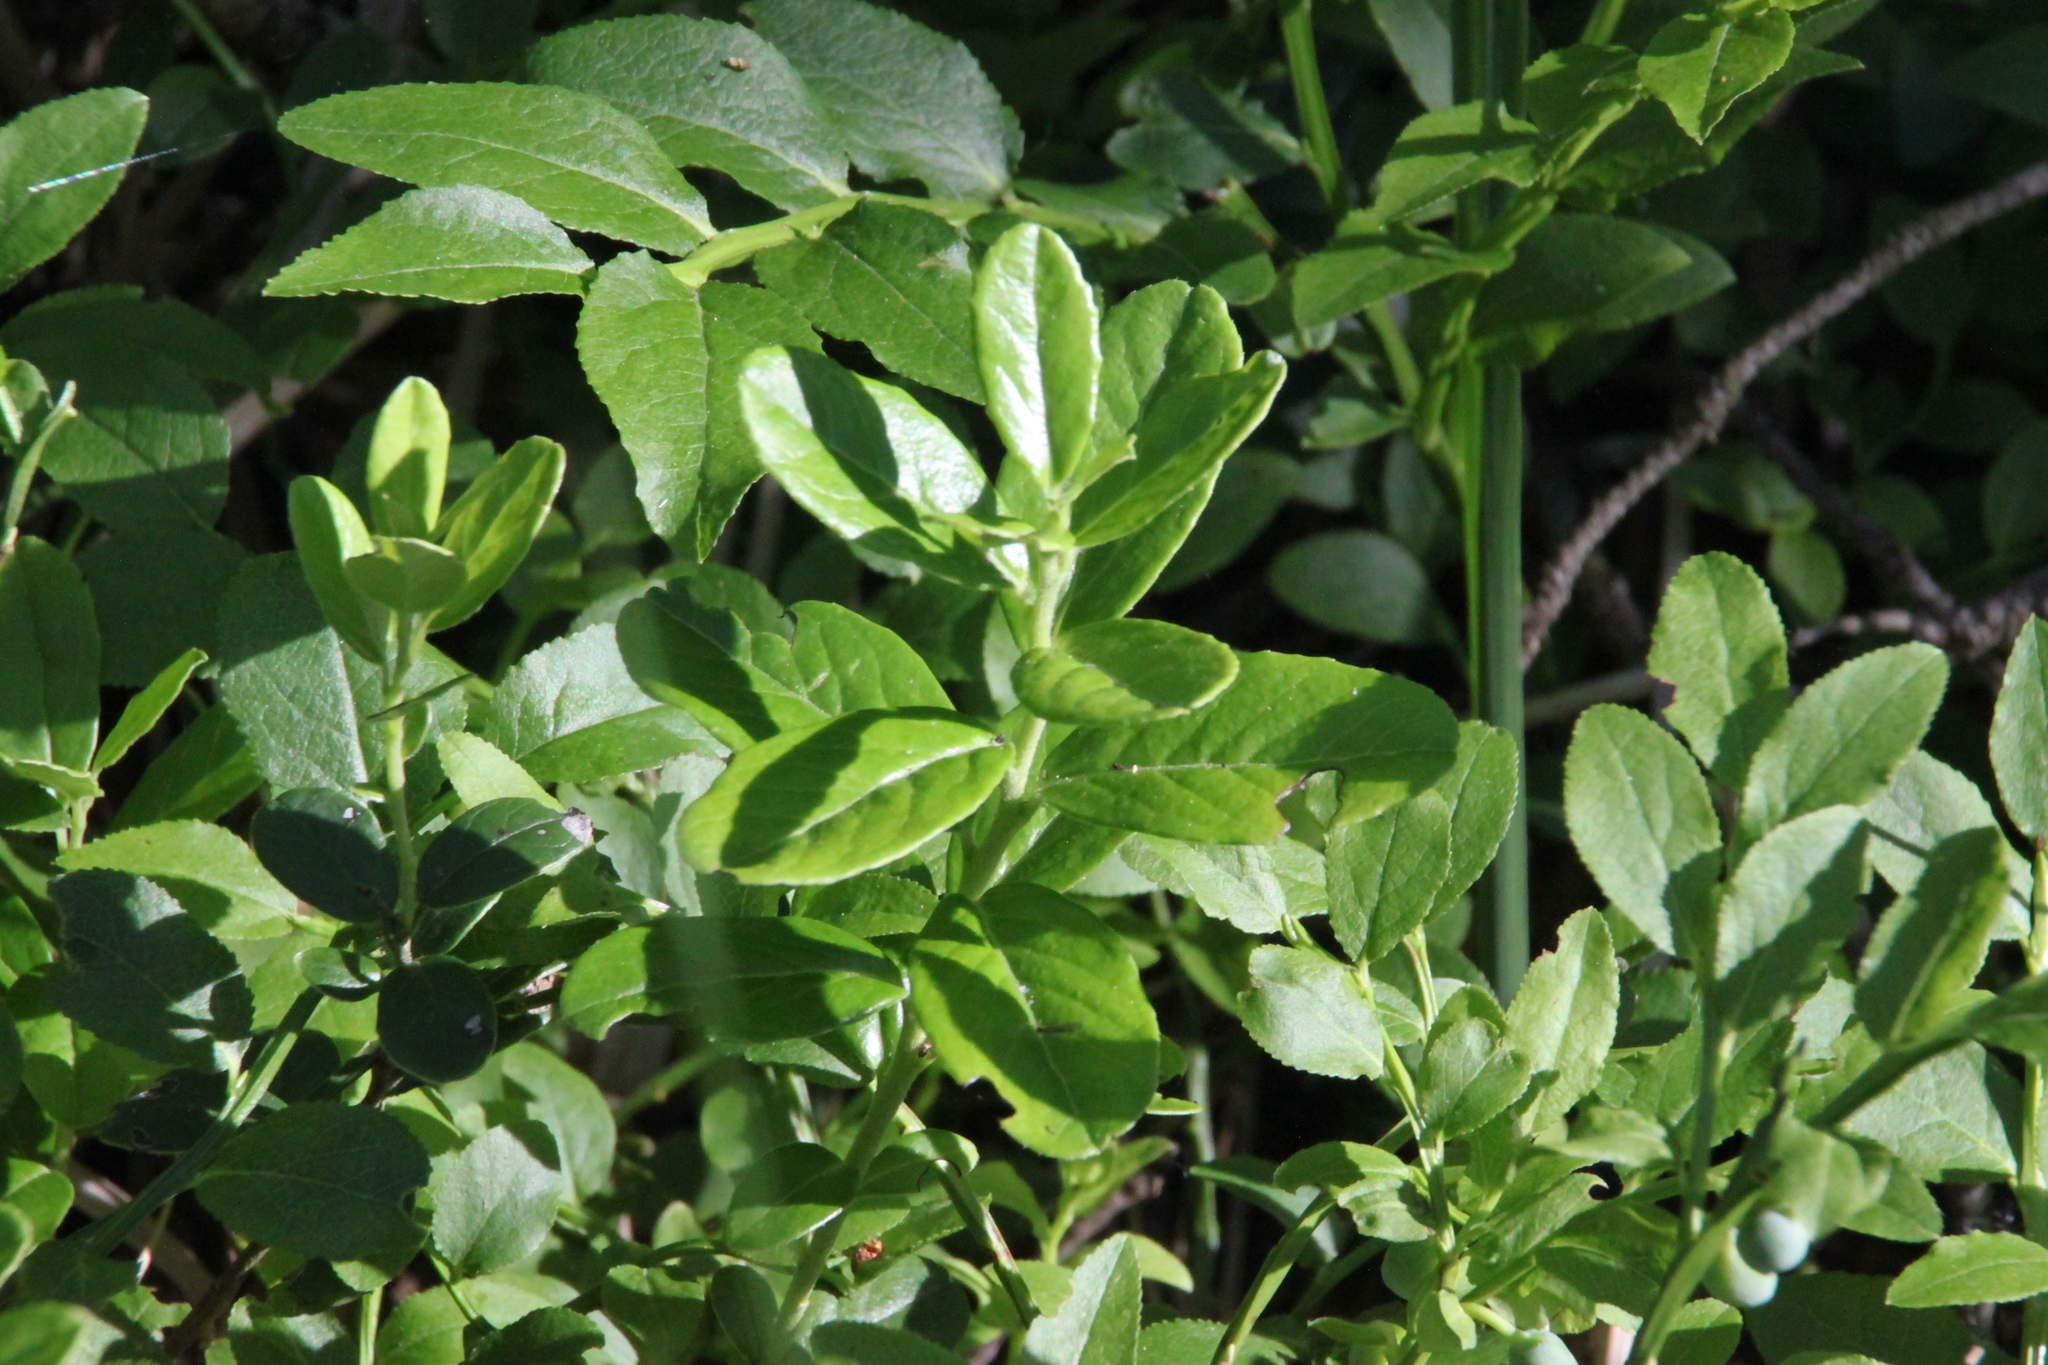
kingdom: Plantae
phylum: Tracheophyta
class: Magnoliopsida
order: Ericales
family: Ericaceae
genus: Vaccinium
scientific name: Vaccinium vitis-idaea
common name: Cowberry
